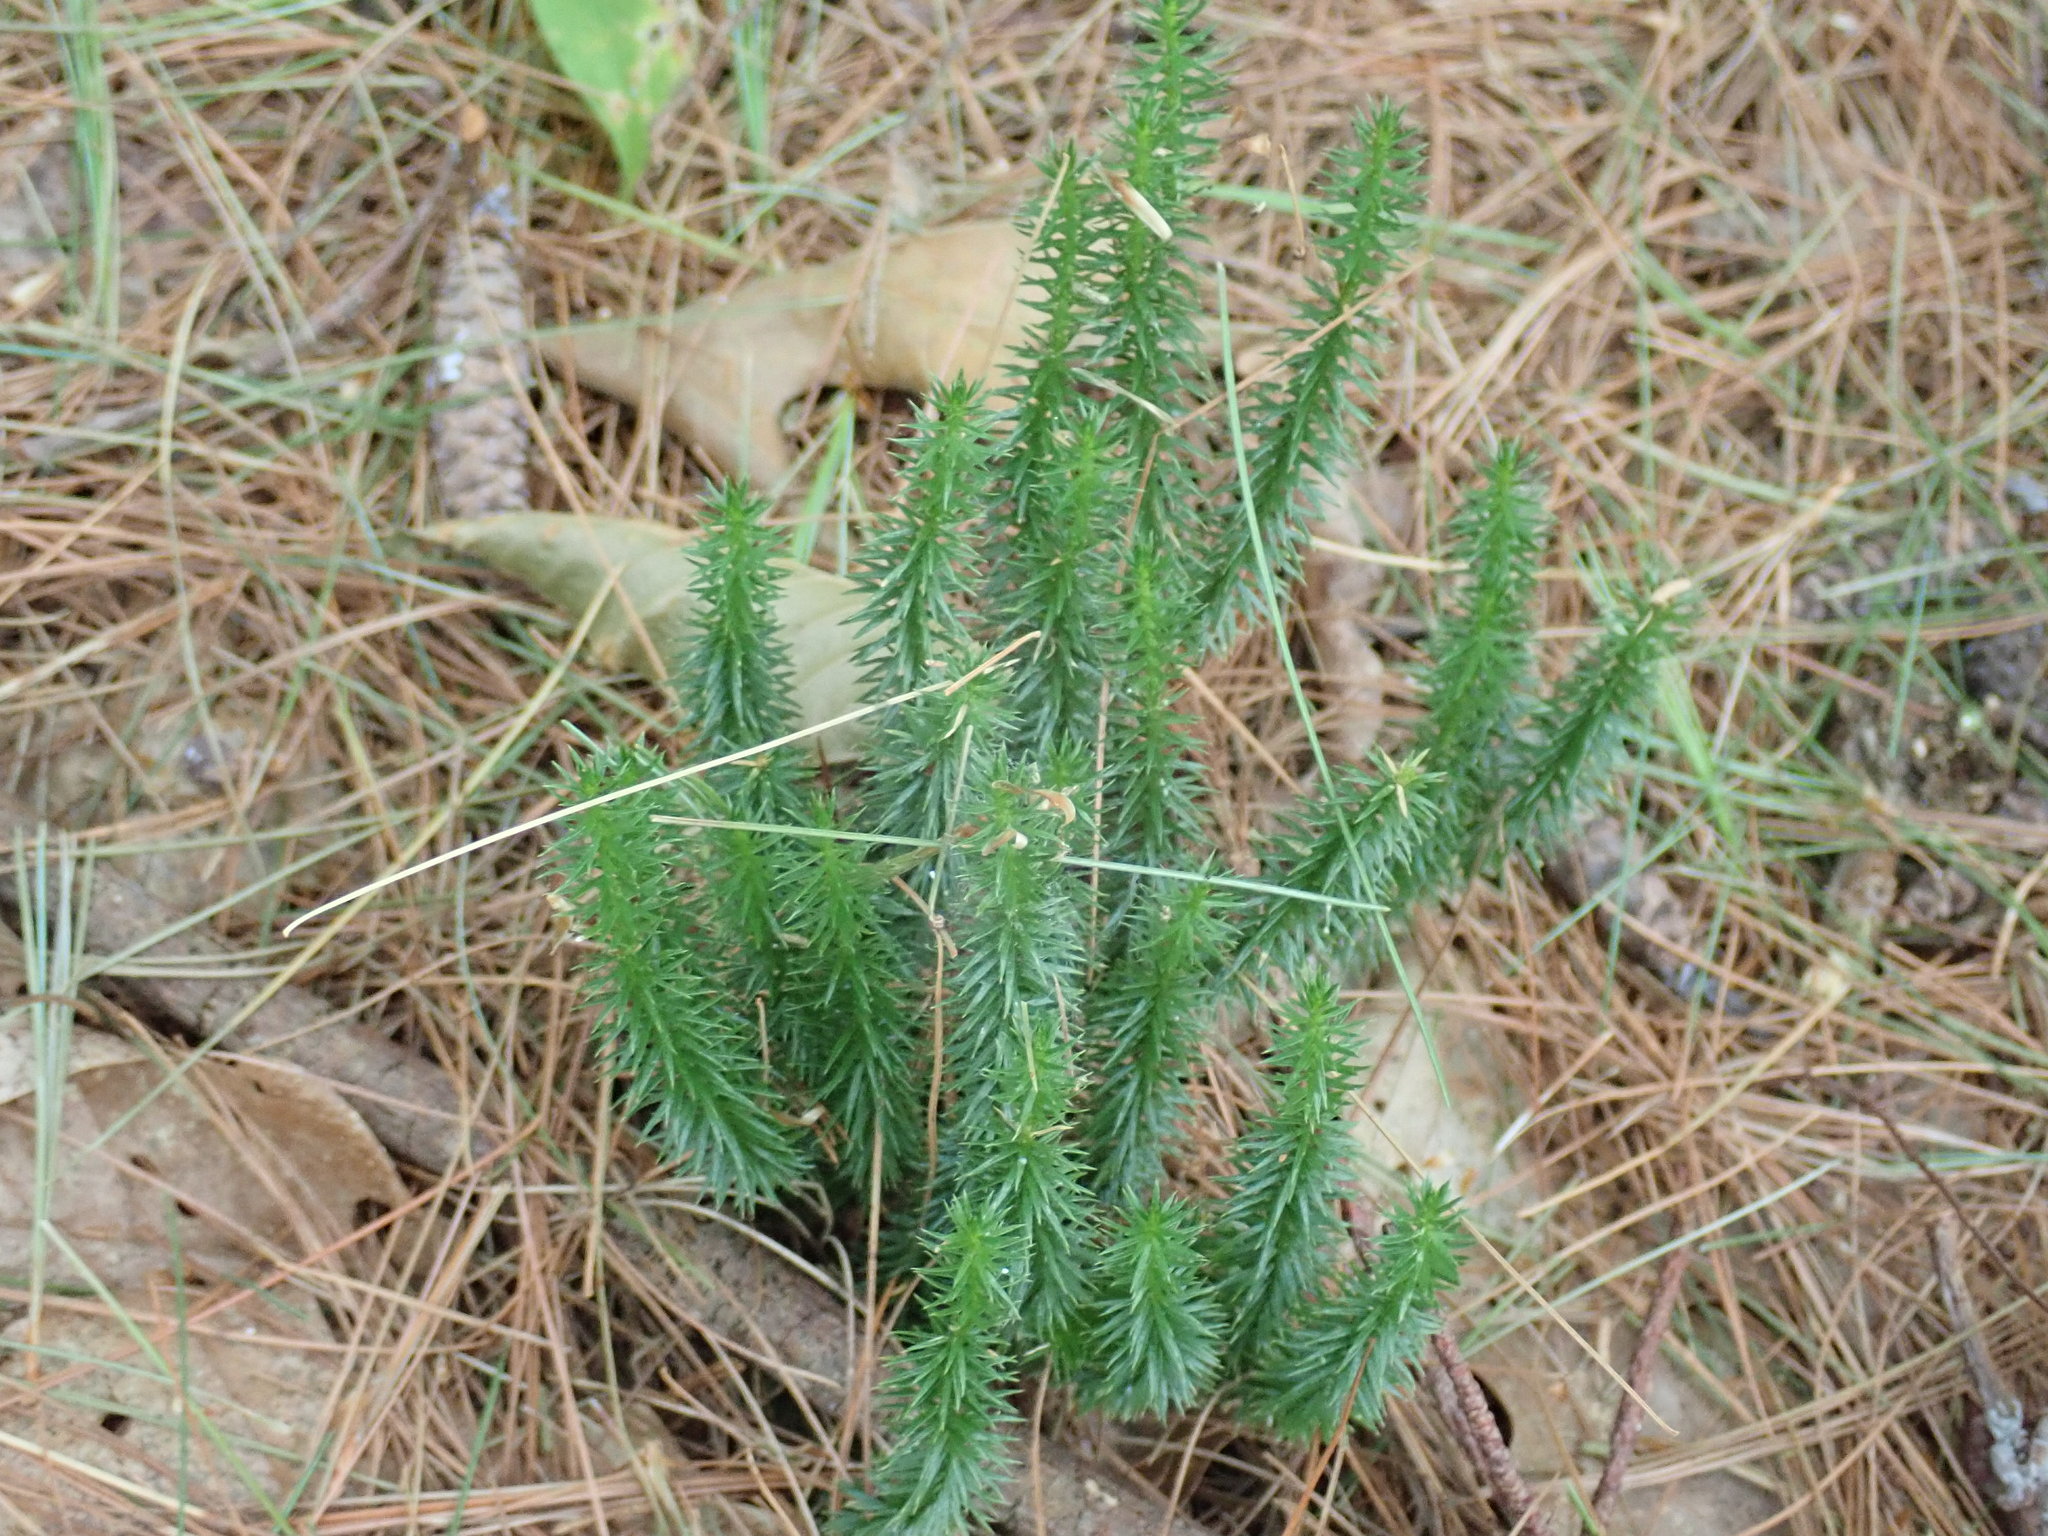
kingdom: Plantae
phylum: Tracheophyta
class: Lycopodiopsida
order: Lycopodiales
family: Lycopodiaceae
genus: Spinulum
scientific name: Spinulum annotinum
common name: Interrupted club-moss
